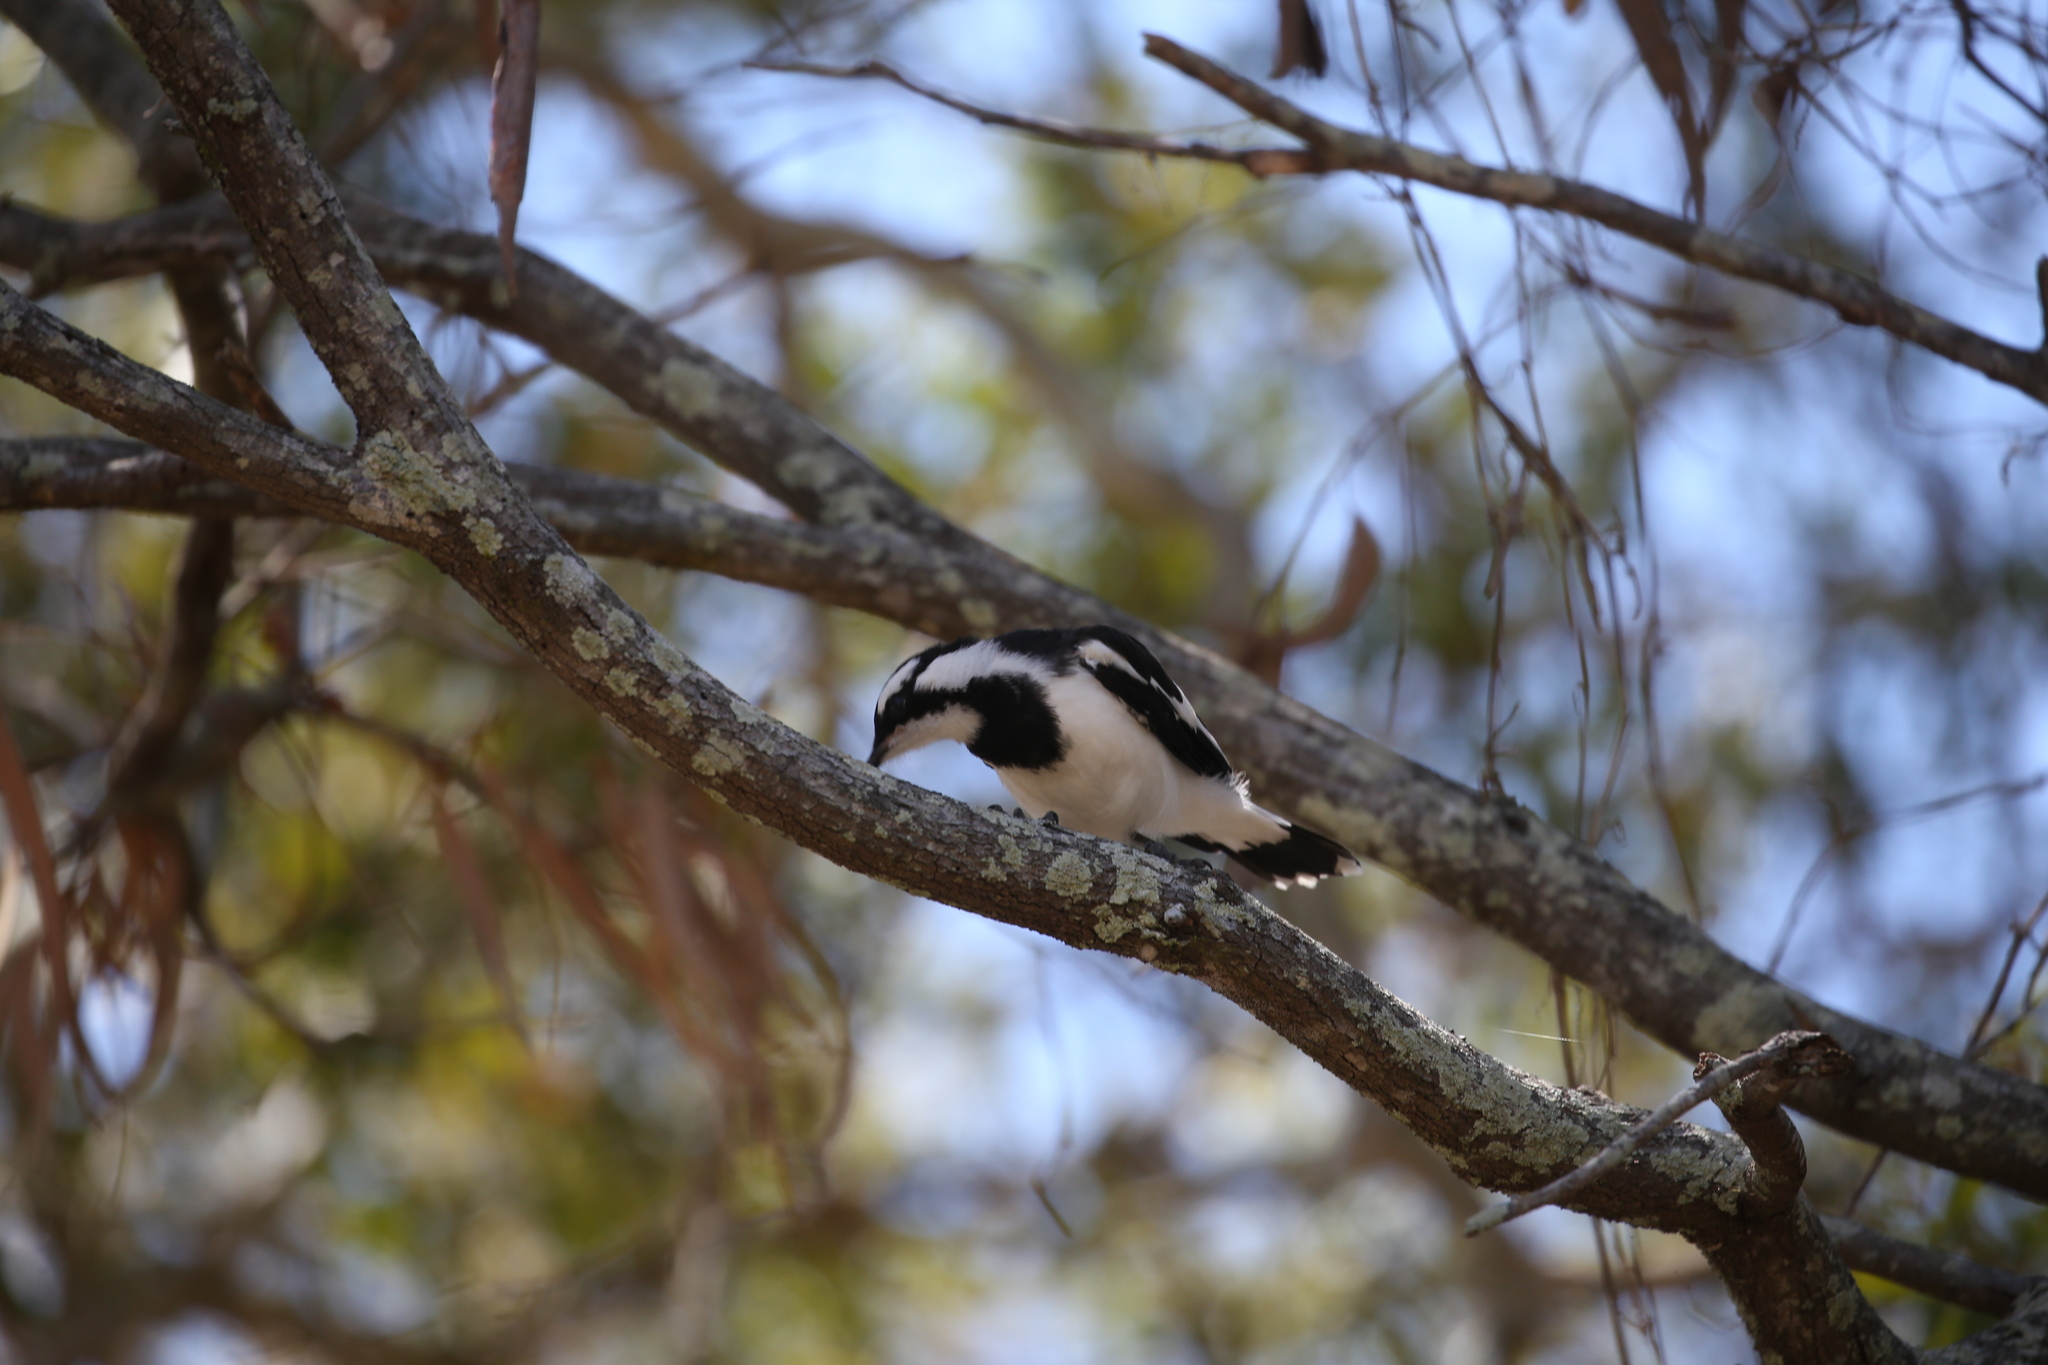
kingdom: Animalia
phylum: Chordata
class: Aves
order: Passeriformes
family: Monarchidae
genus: Grallina
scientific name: Grallina cyanoleuca
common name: Magpie-lark
